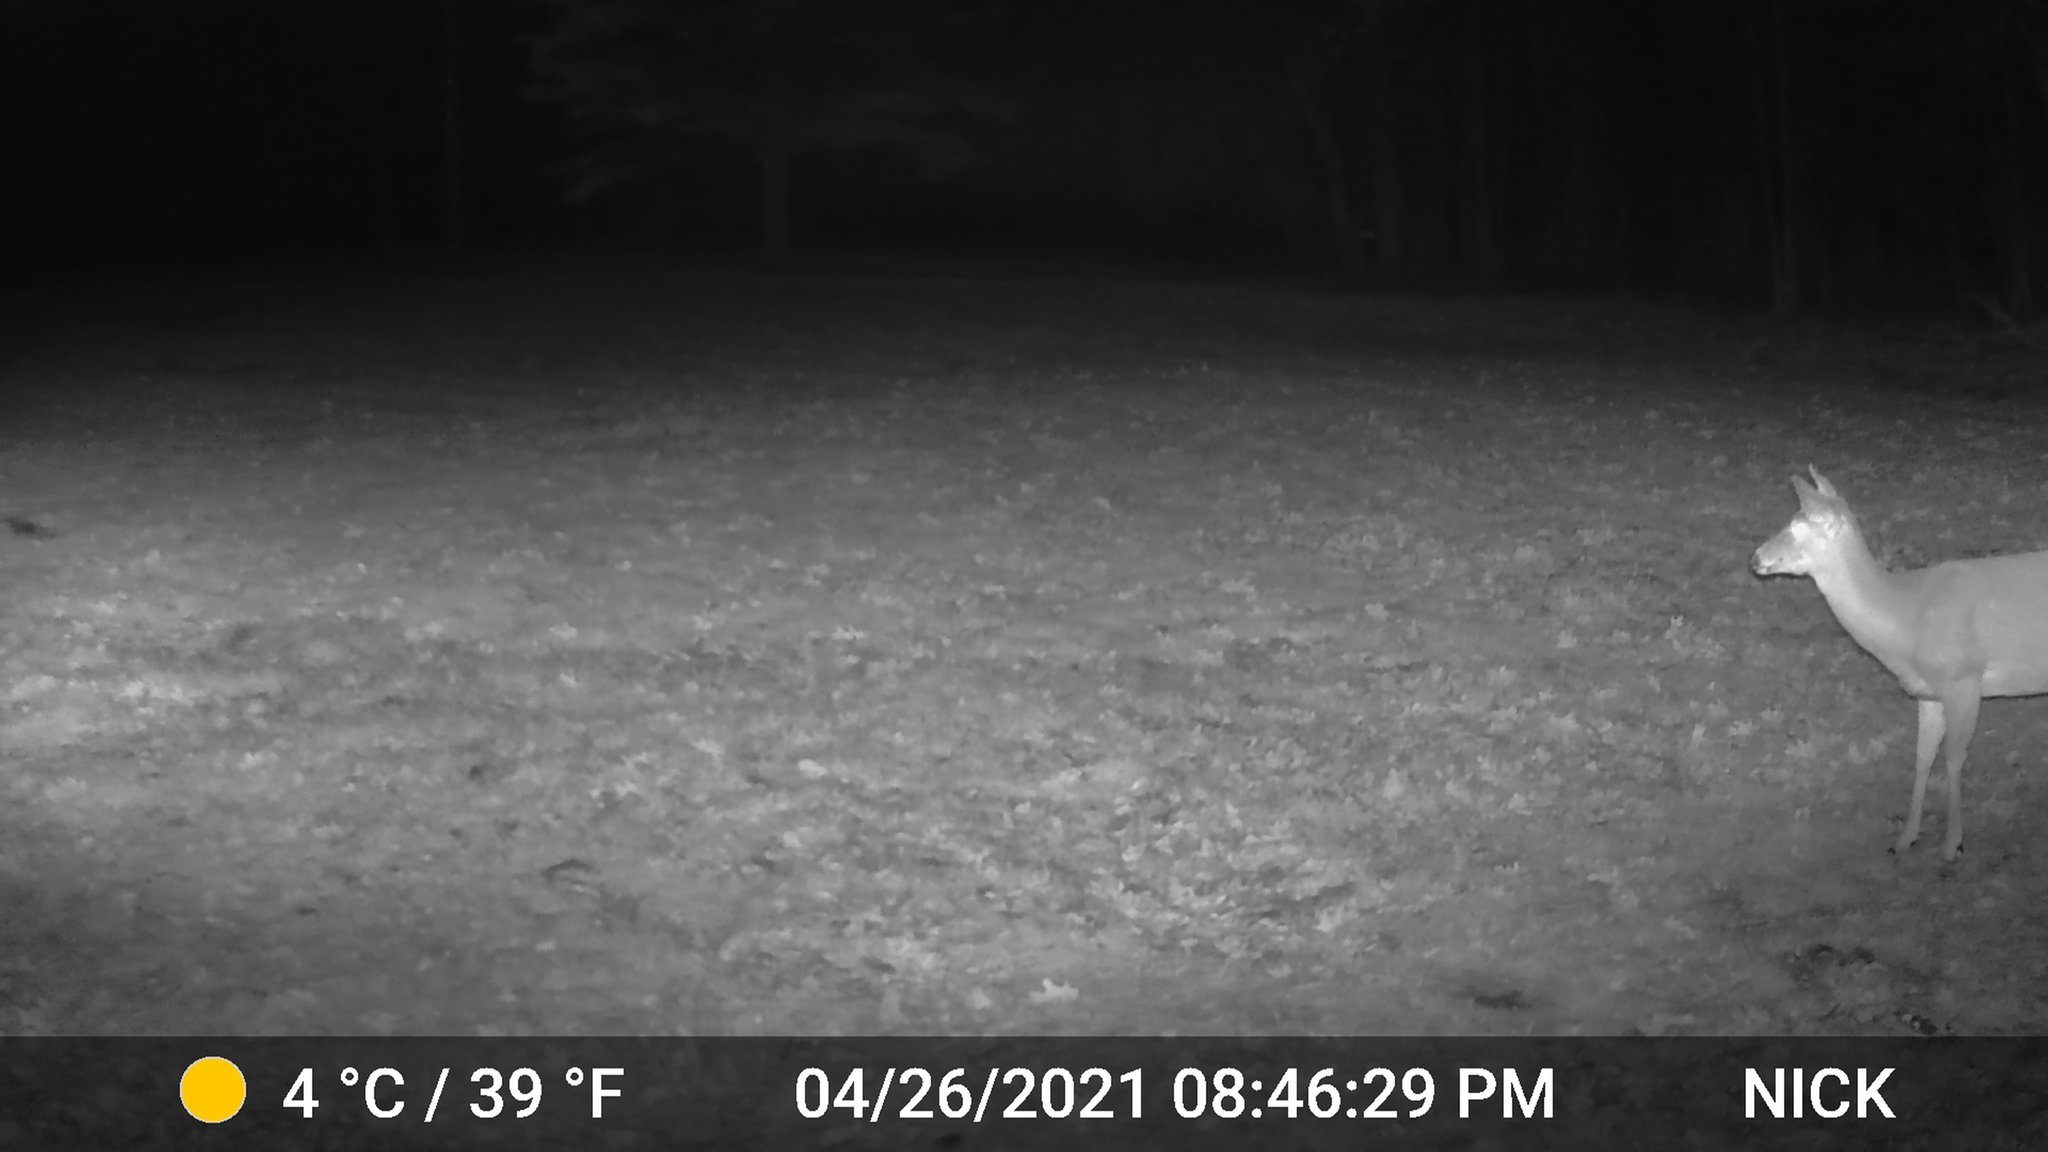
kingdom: Animalia
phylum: Chordata
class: Mammalia
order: Artiodactyla
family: Cervidae
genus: Odocoileus
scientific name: Odocoileus virginianus
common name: White-tailed deer
